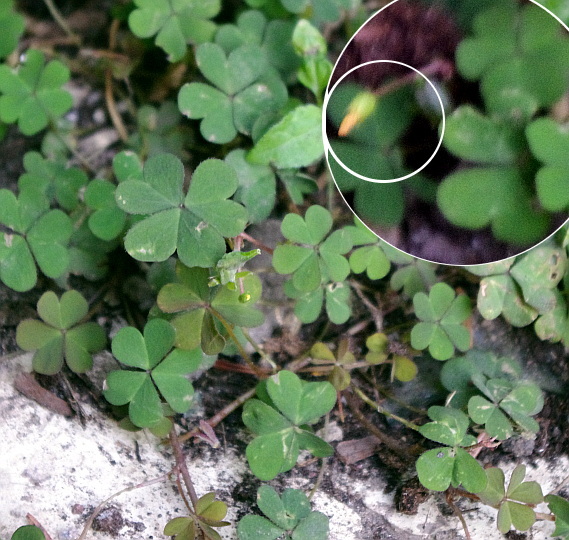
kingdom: Plantae
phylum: Tracheophyta
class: Magnoliopsida
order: Oxalidales
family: Oxalidaceae
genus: Oxalis
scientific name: Oxalis corniculata
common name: Procumbent yellow-sorrel
